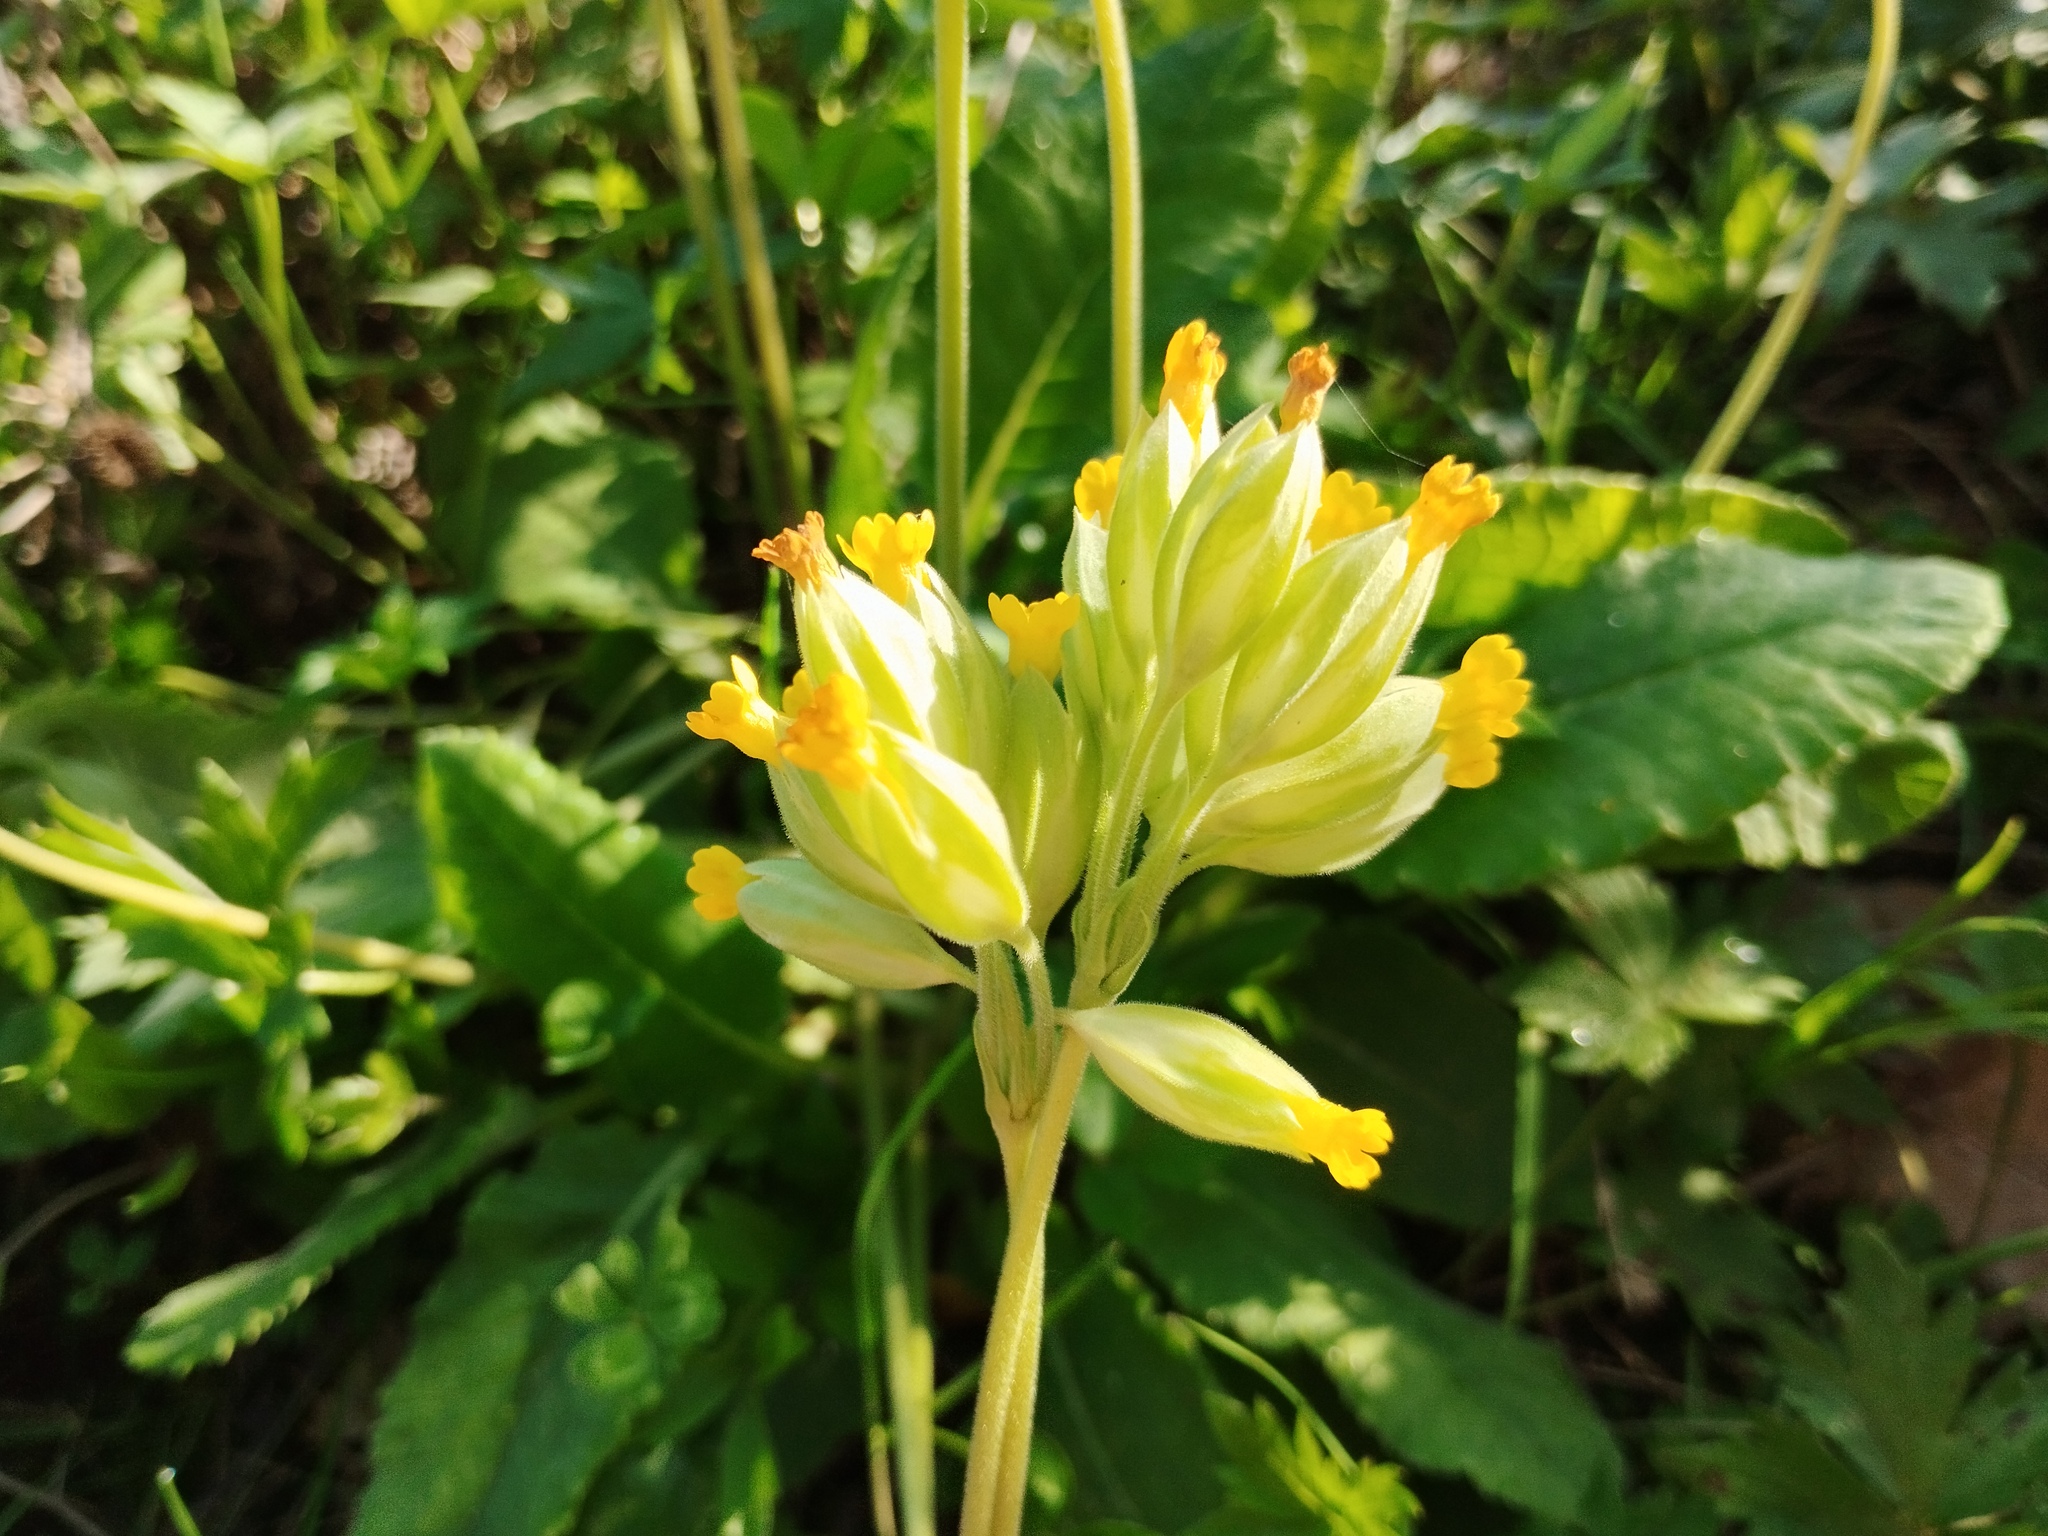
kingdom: Plantae
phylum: Tracheophyta
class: Magnoliopsida
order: Ericales
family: Primulaceae
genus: Primula
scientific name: Primula veris
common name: Cowslip
